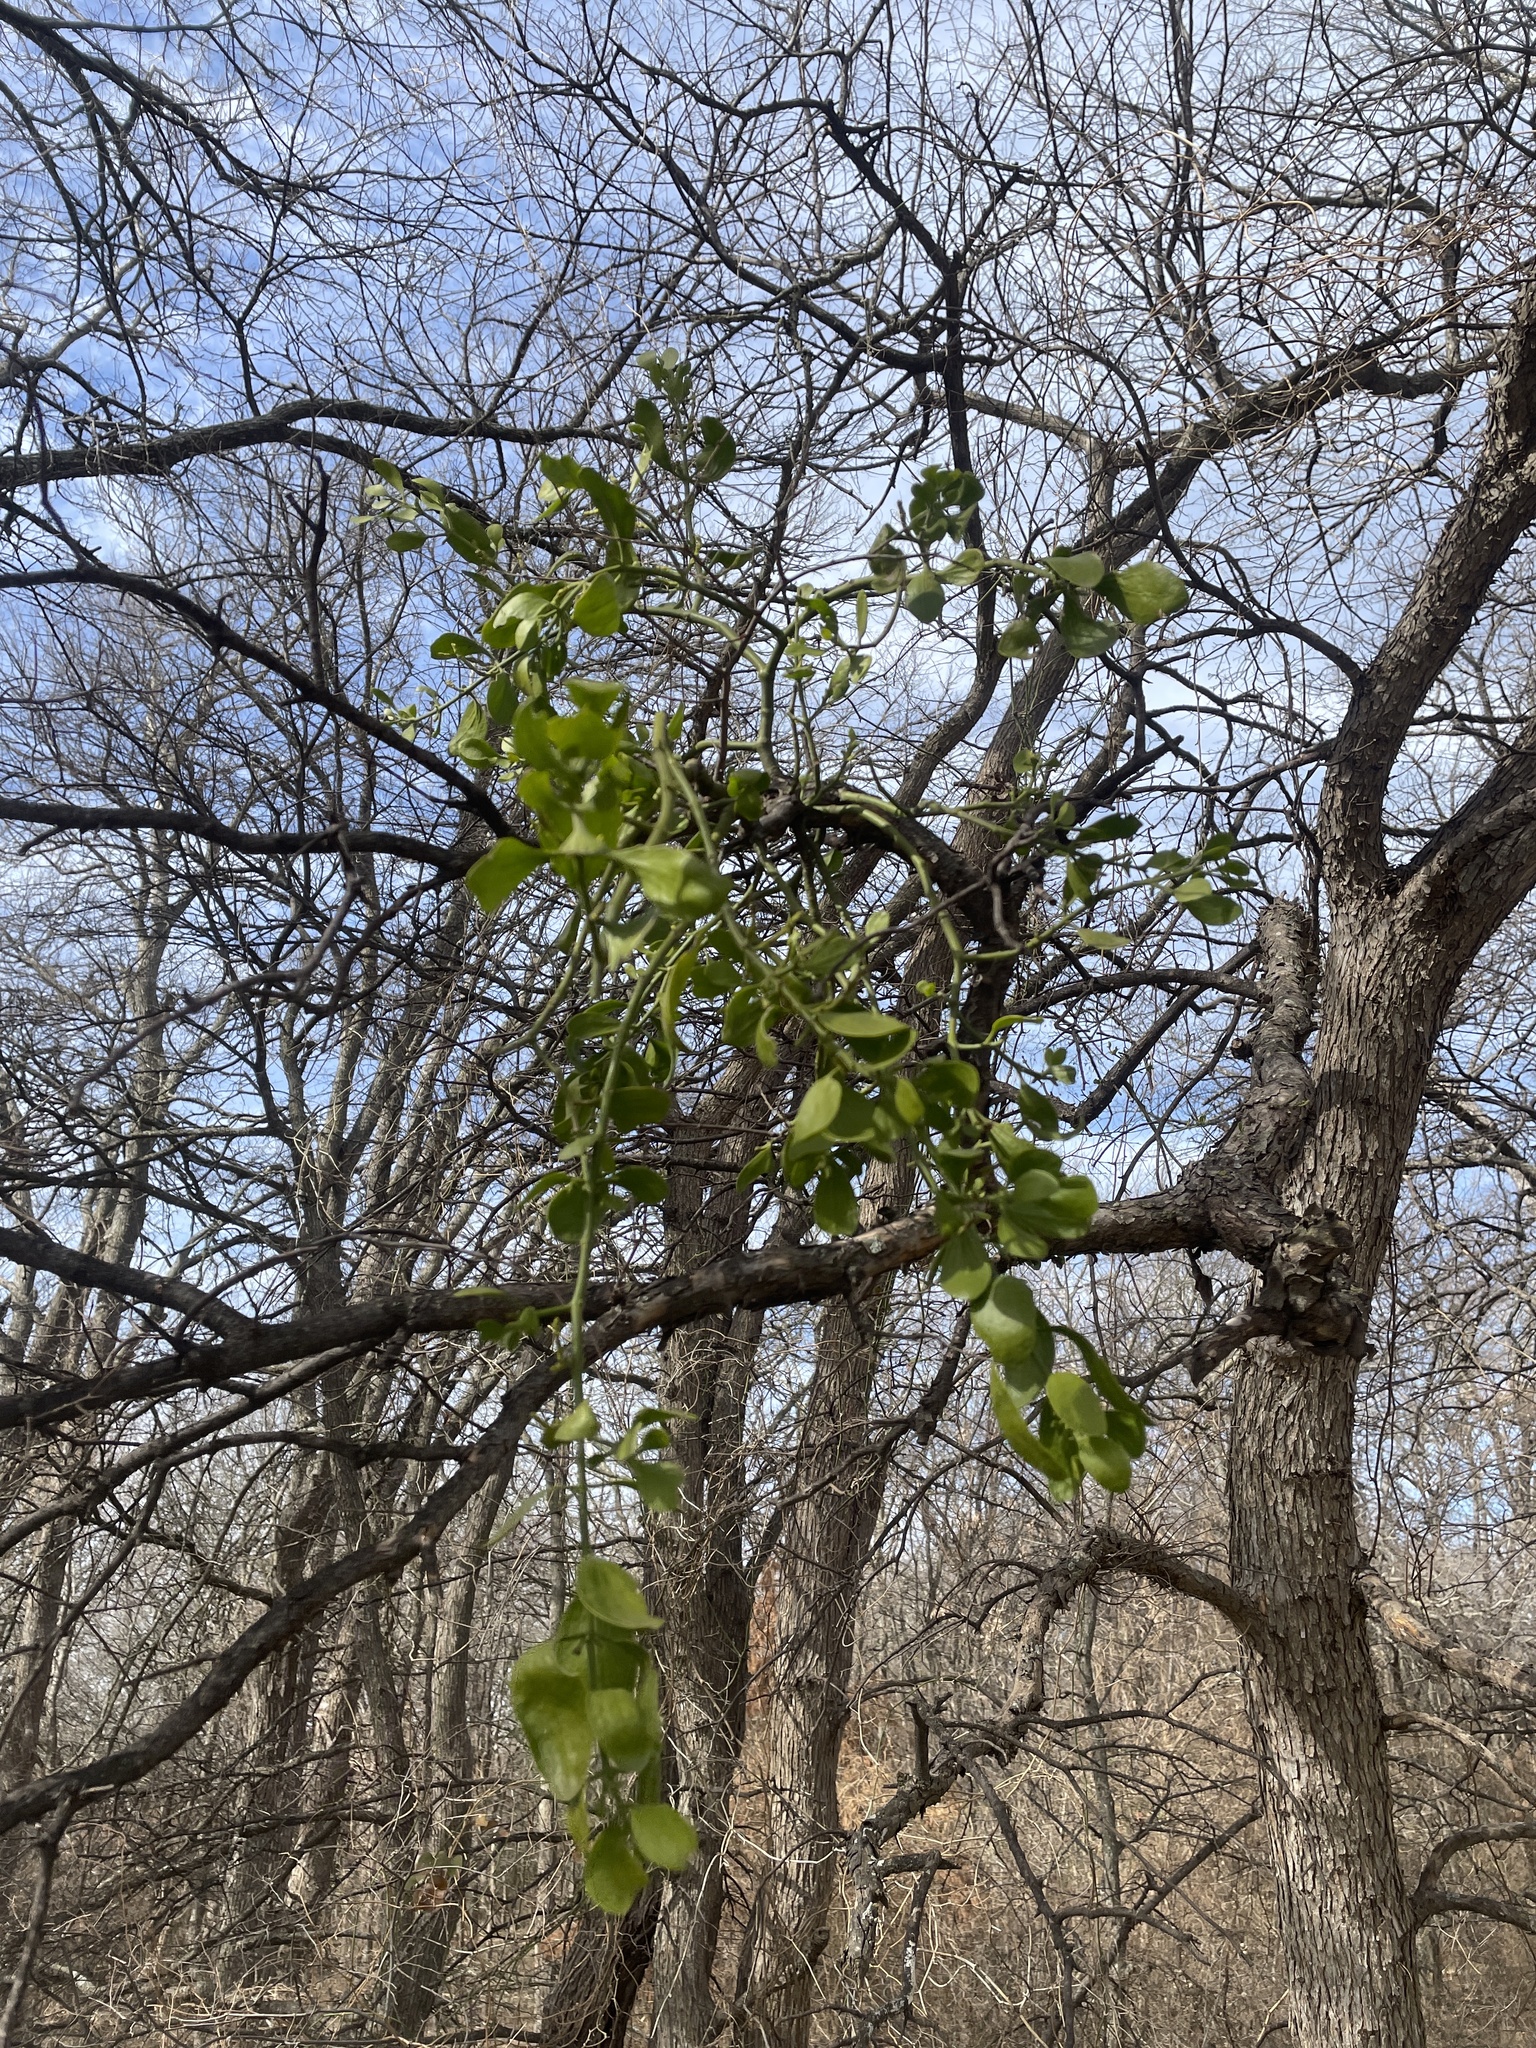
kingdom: Plantae
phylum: Tracheophyta
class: Magnoliopsida
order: Santalales
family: Viscaceae
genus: Phoradendron
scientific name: Phoradendron leucarpum
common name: Pacific mistletoe
